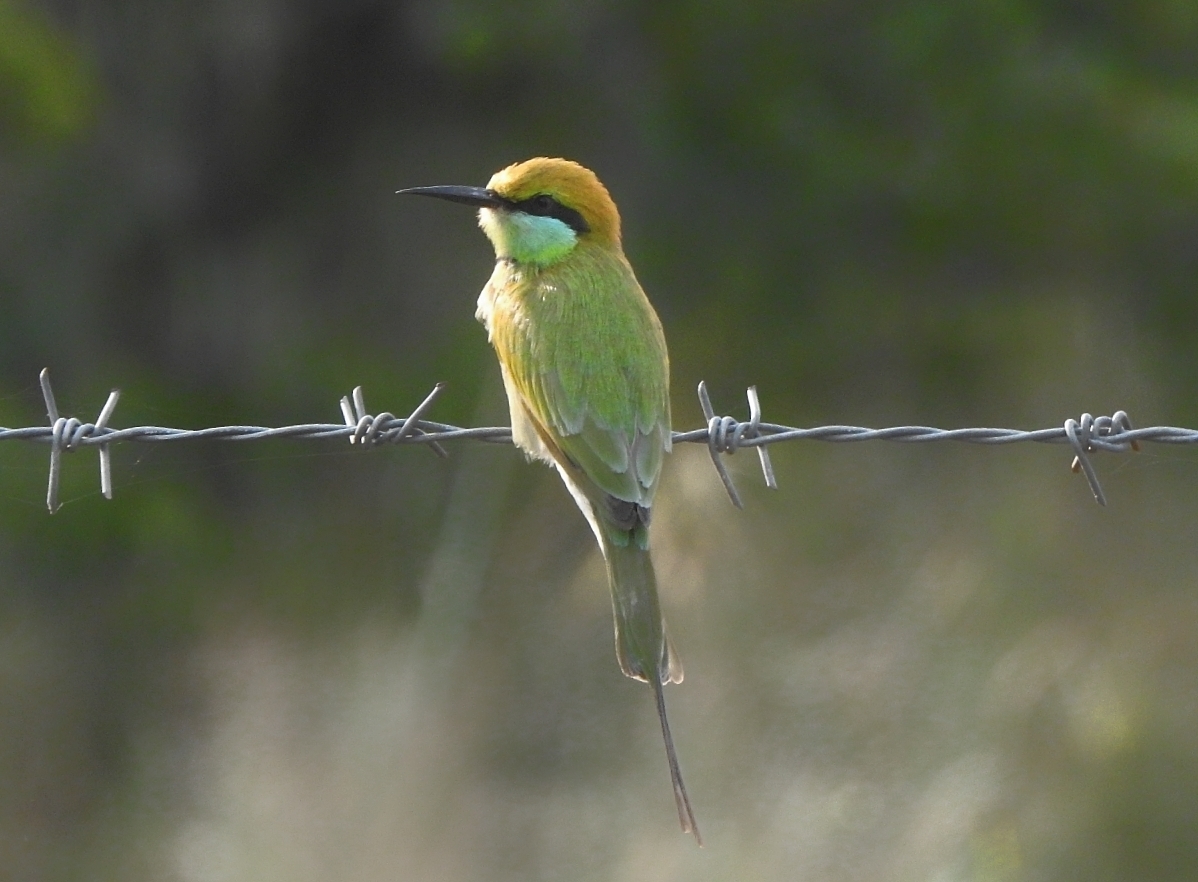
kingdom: Animalia
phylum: Chordata
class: Aves
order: Coraciiformes
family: Meropidae
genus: Merops
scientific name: Merops orientalis
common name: Green bee-eater
